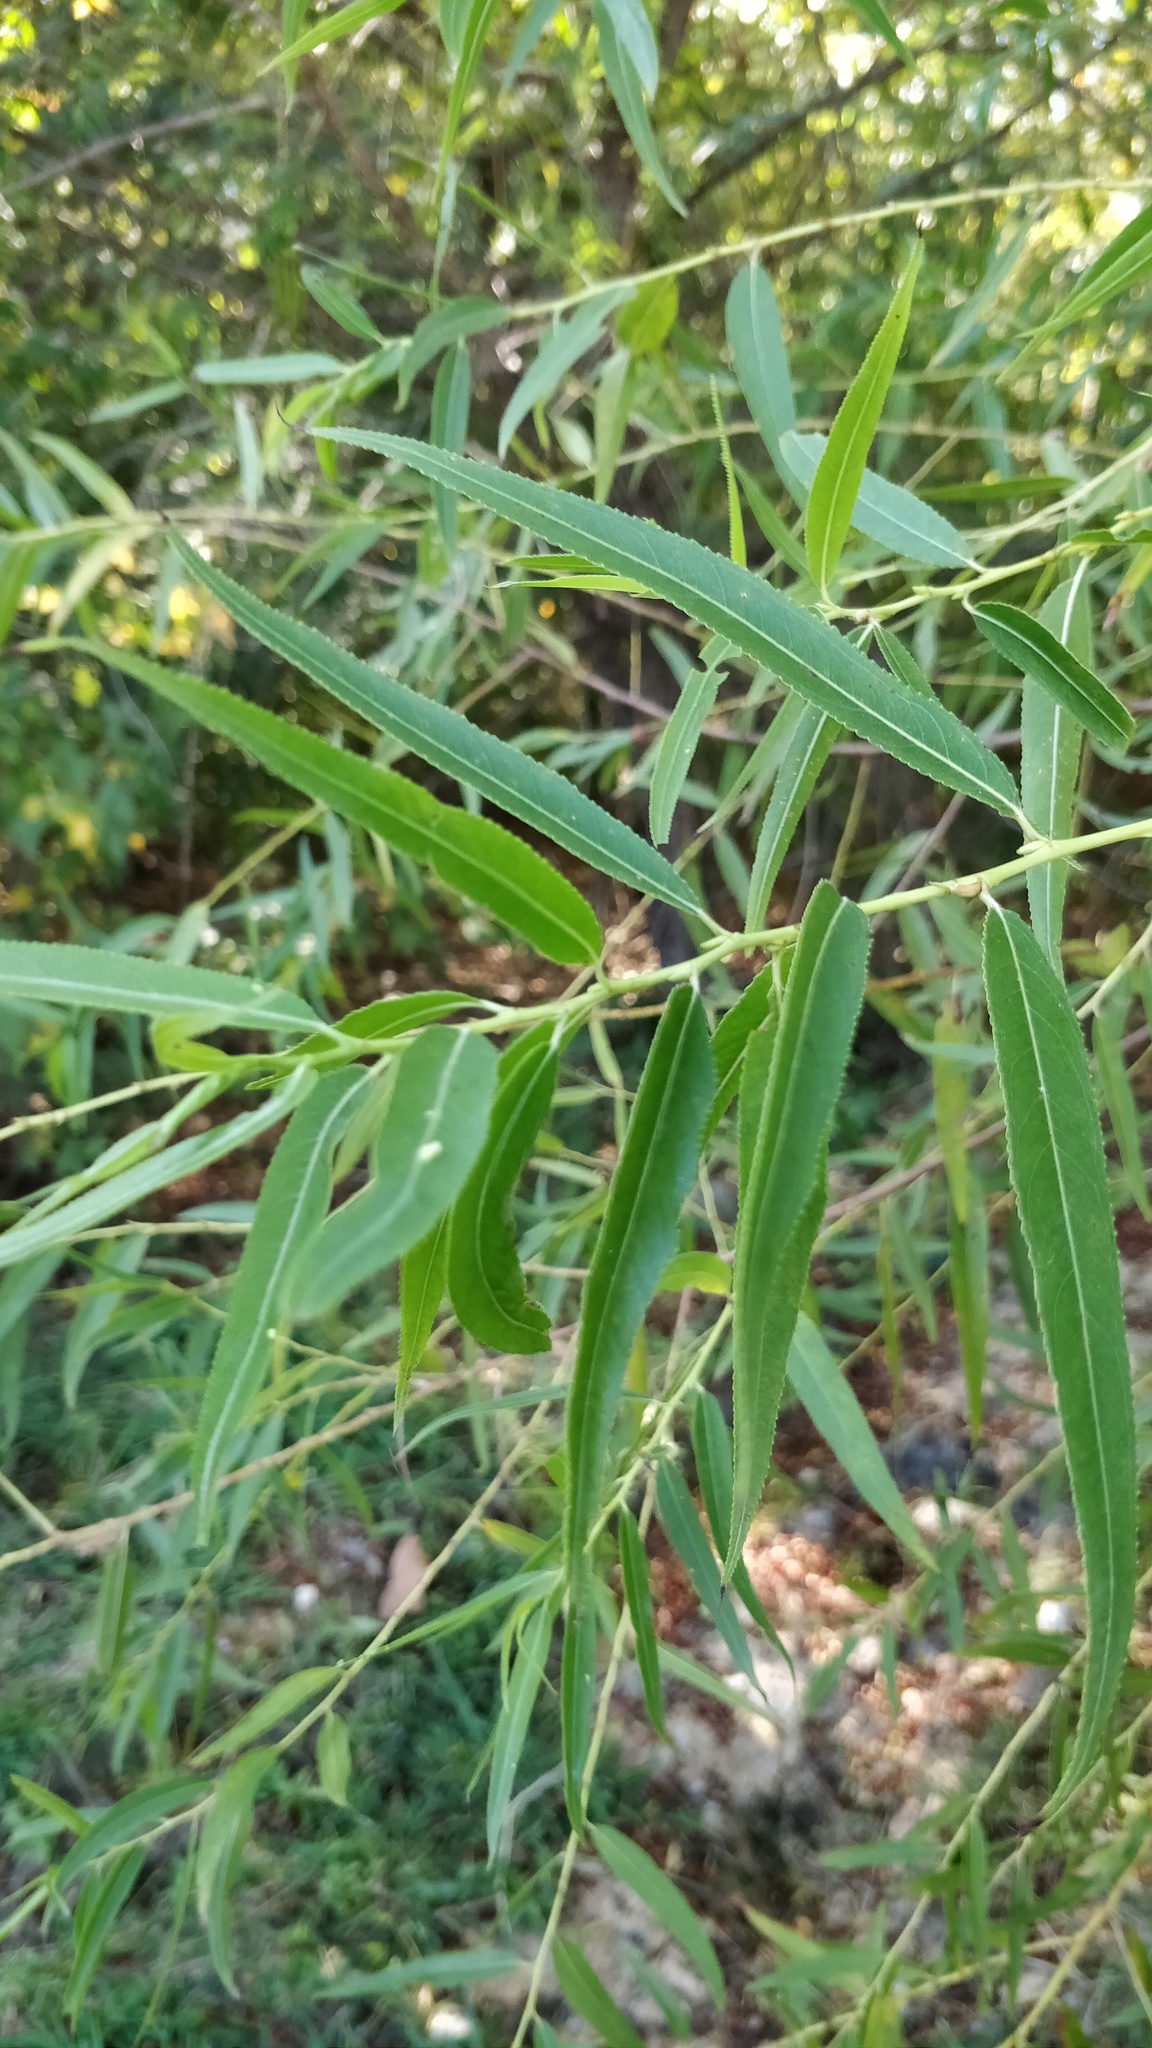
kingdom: Plantae
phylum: Tracheophyta
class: Magnoliopsida
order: Malpighiales
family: Salicaceae
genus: Salix
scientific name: Salix nigra
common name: Black willow
